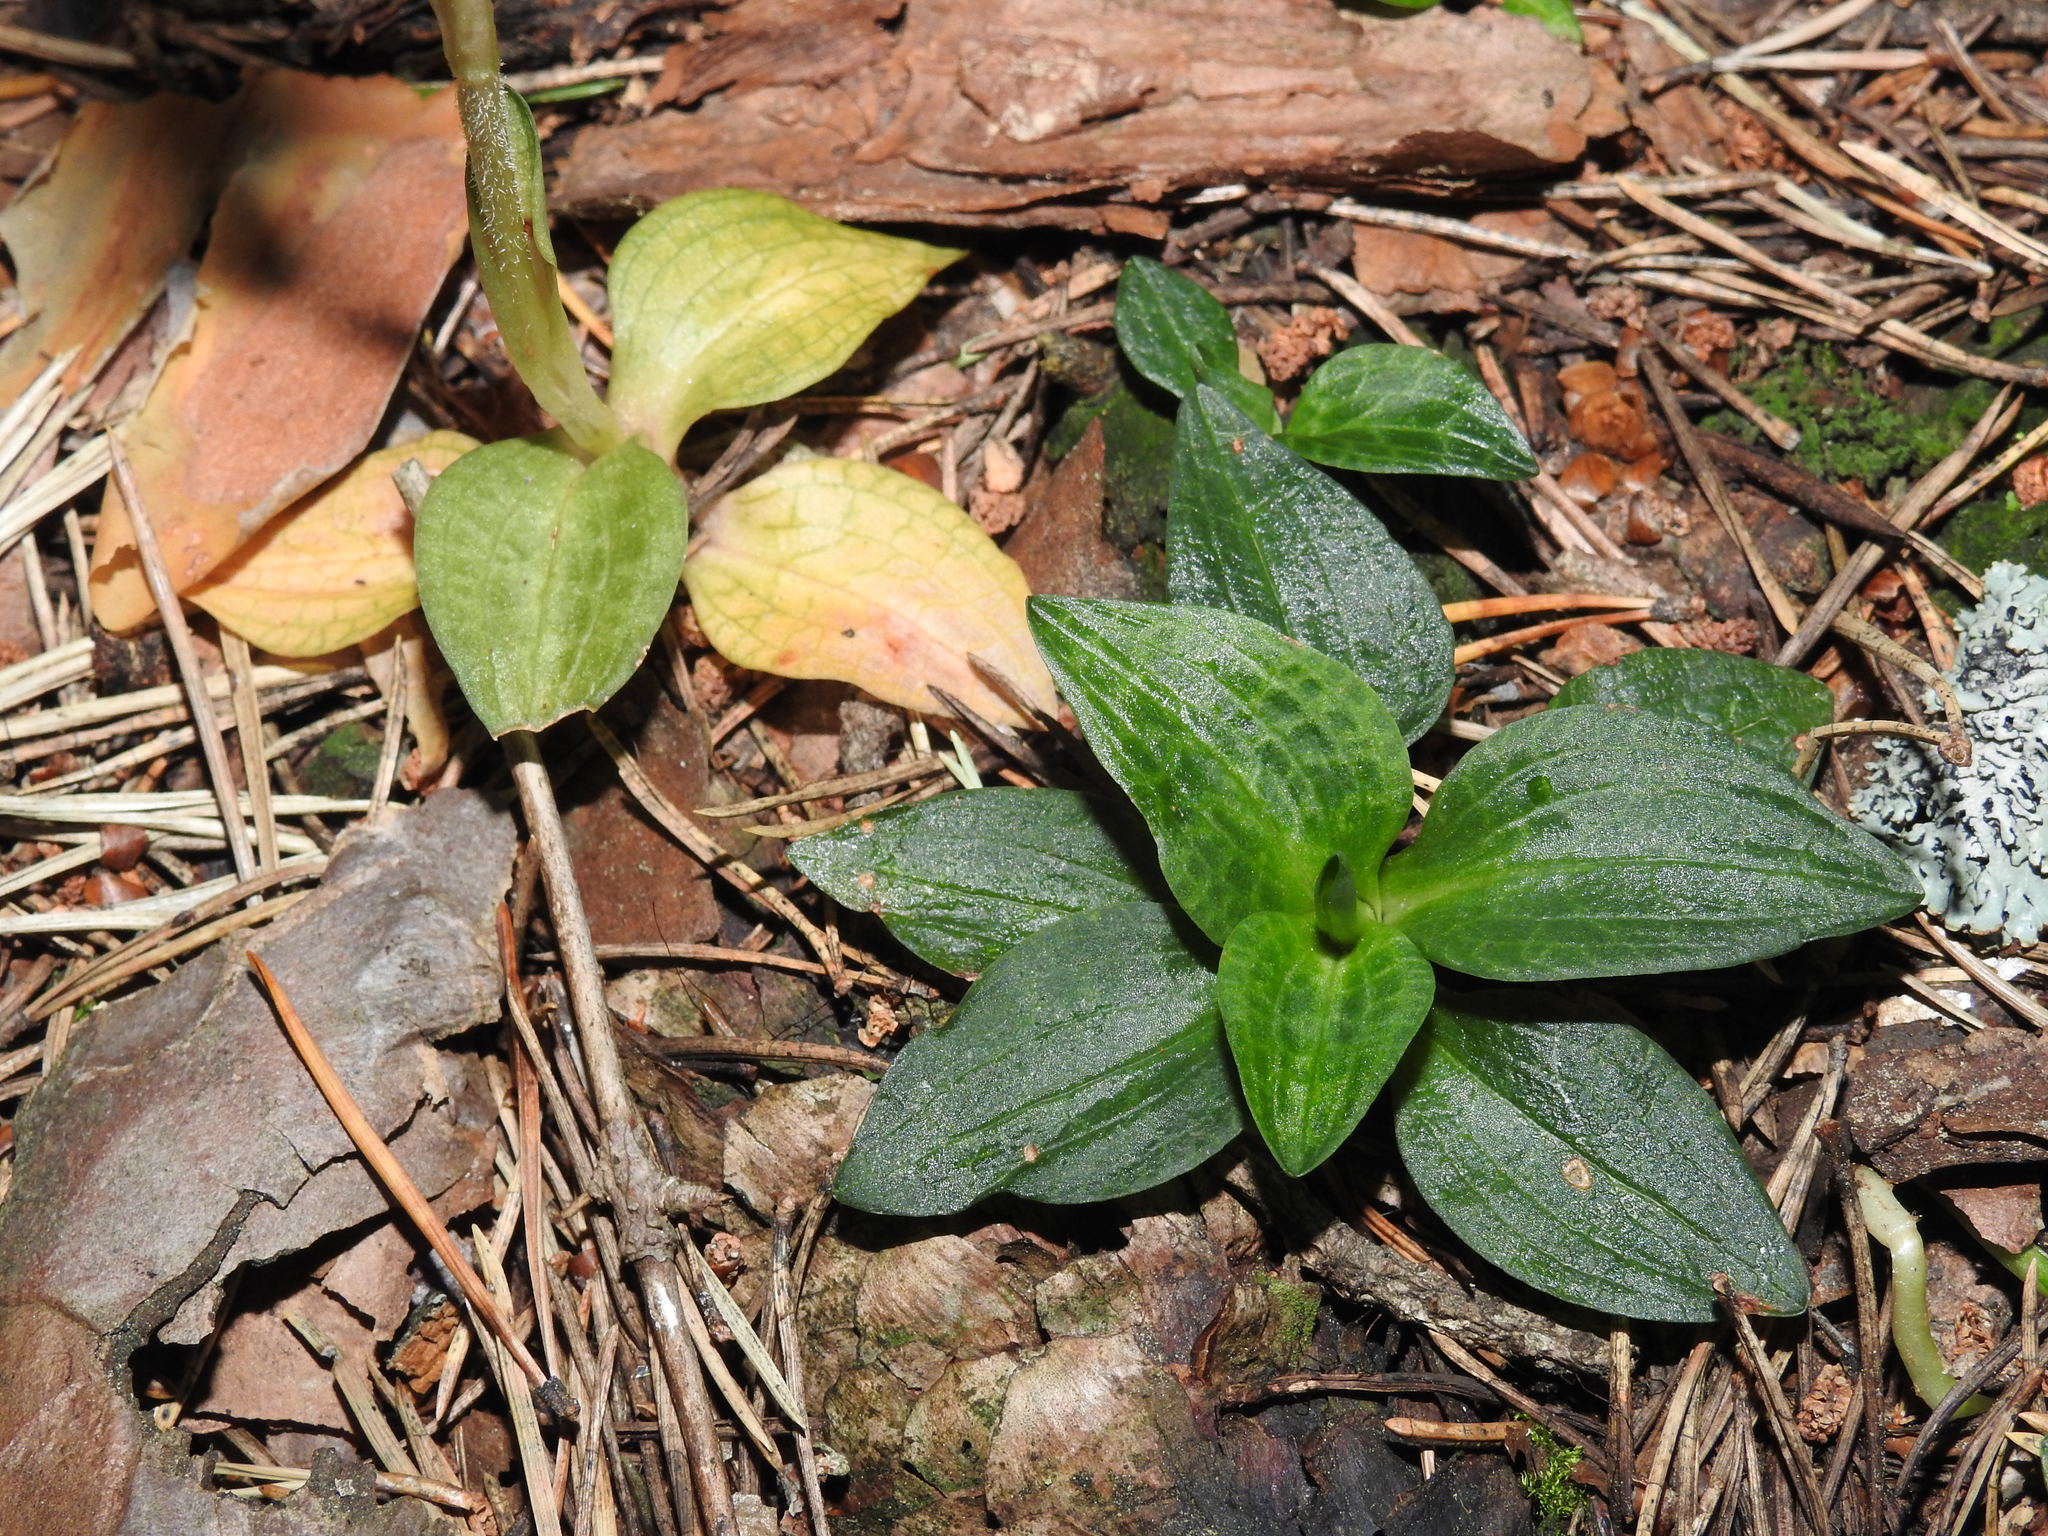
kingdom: Plantae
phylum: Tracheophyta
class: Liliopsida
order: Asparagales
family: Orchidaceae
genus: Goodyera
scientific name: Goodyera repens
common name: Creeping lady's-tresses
